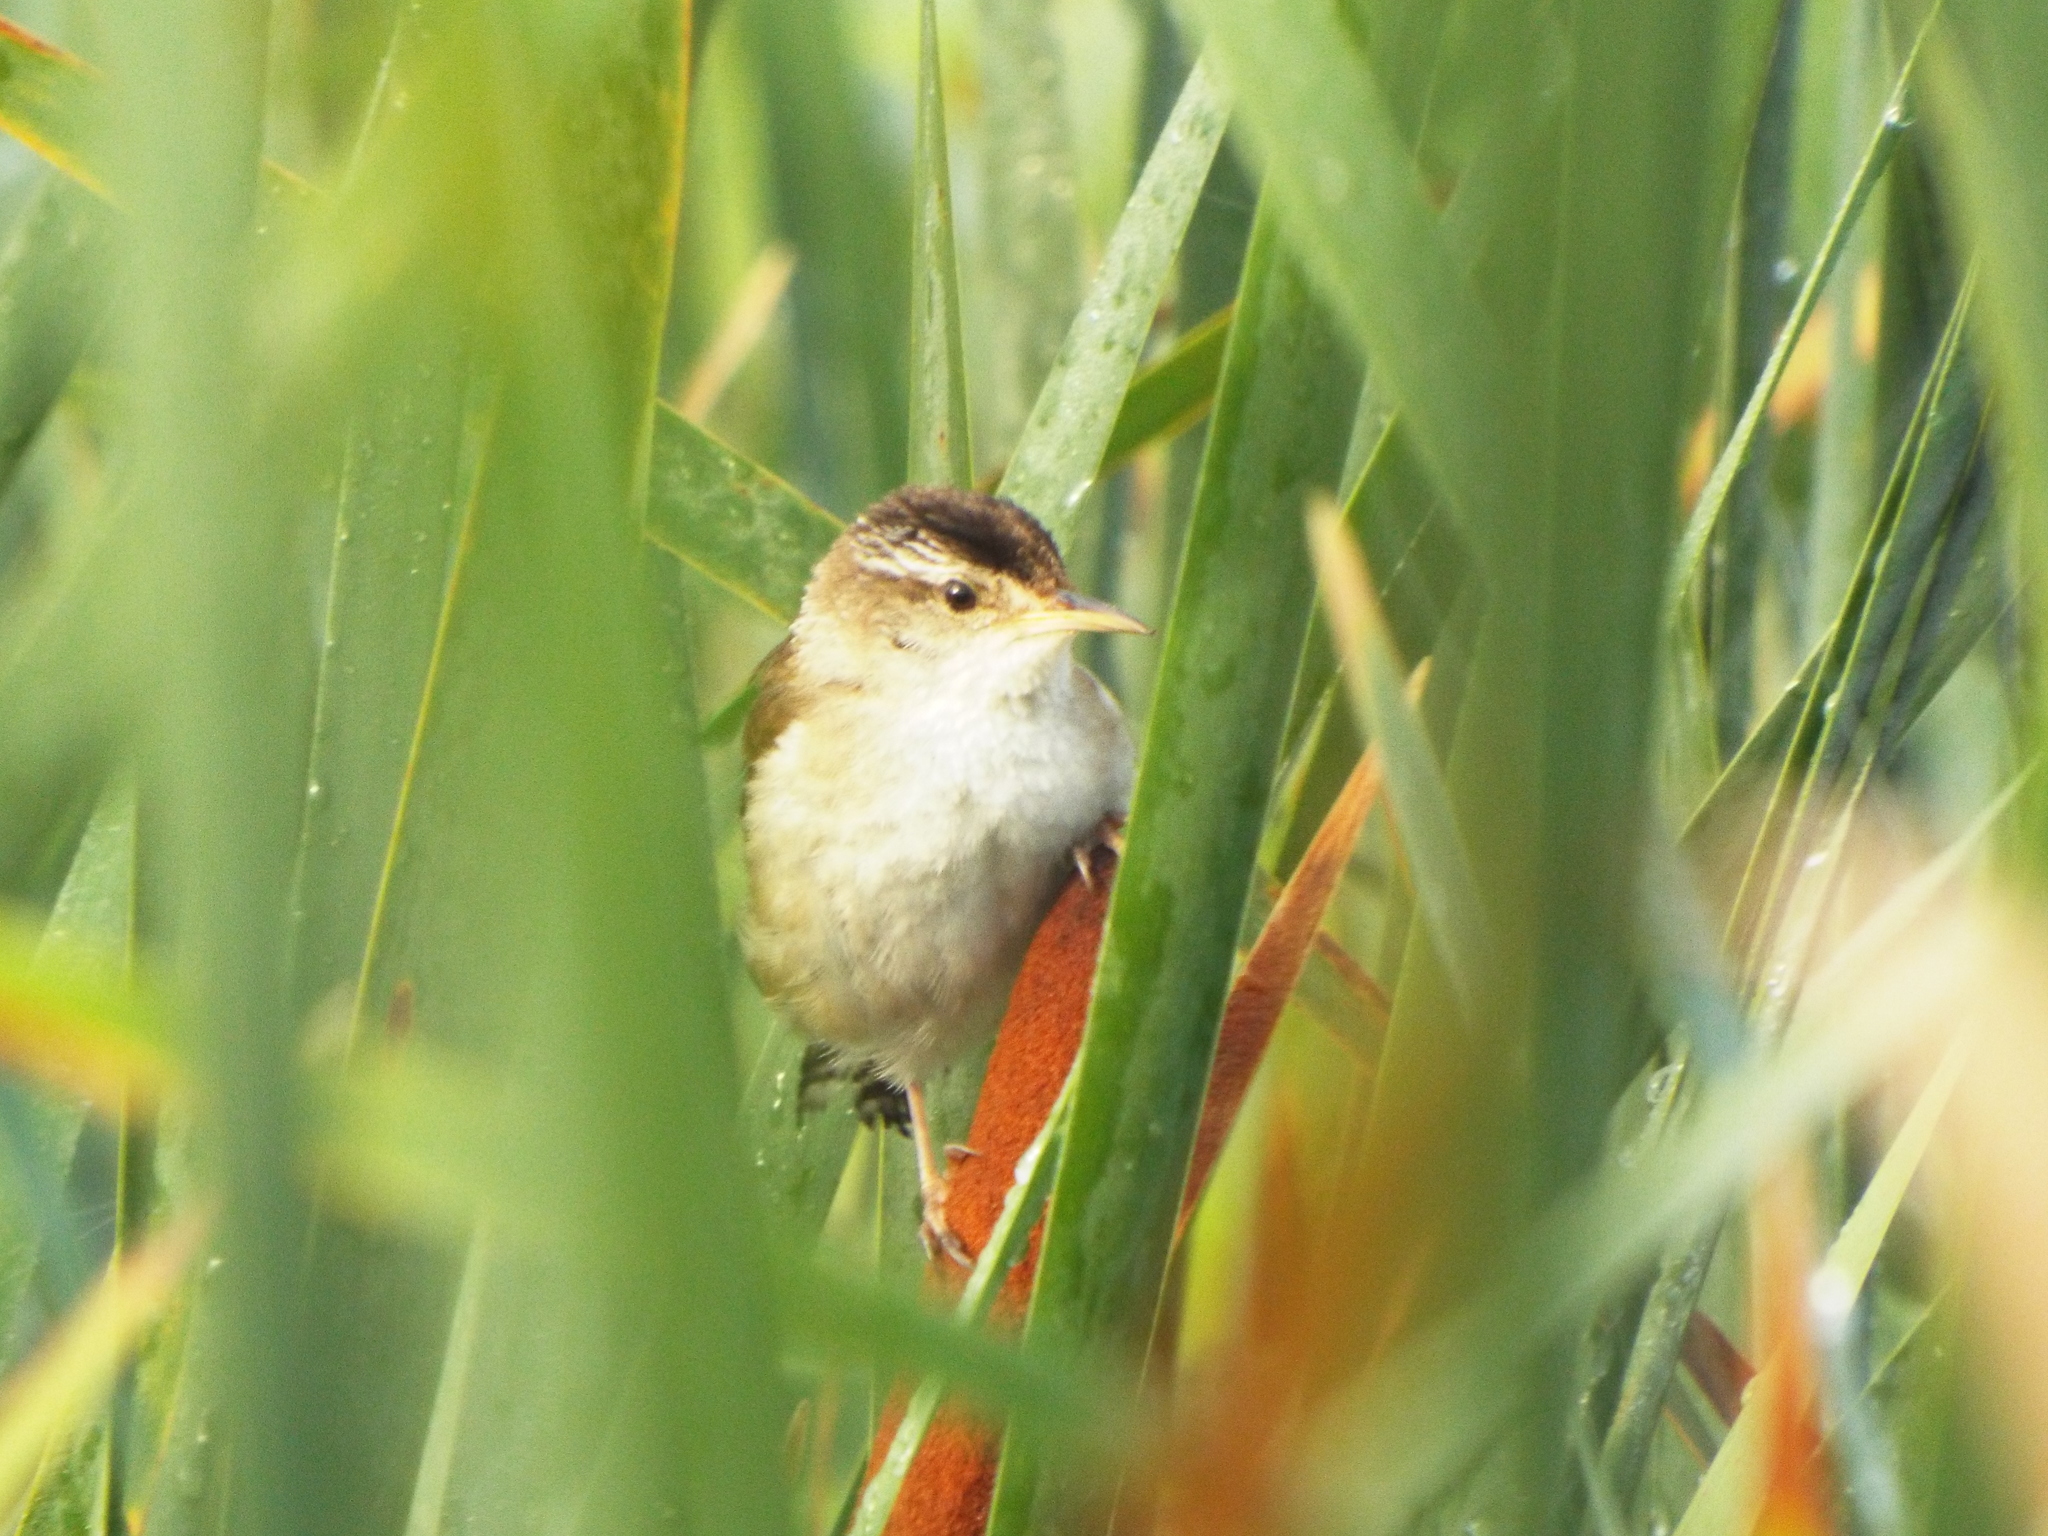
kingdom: Animalia
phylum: Chordata
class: Aves
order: Passeriformes
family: Troglodytidae
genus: Cistothorus
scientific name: Cistothorus palustris
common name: Marsh wren
